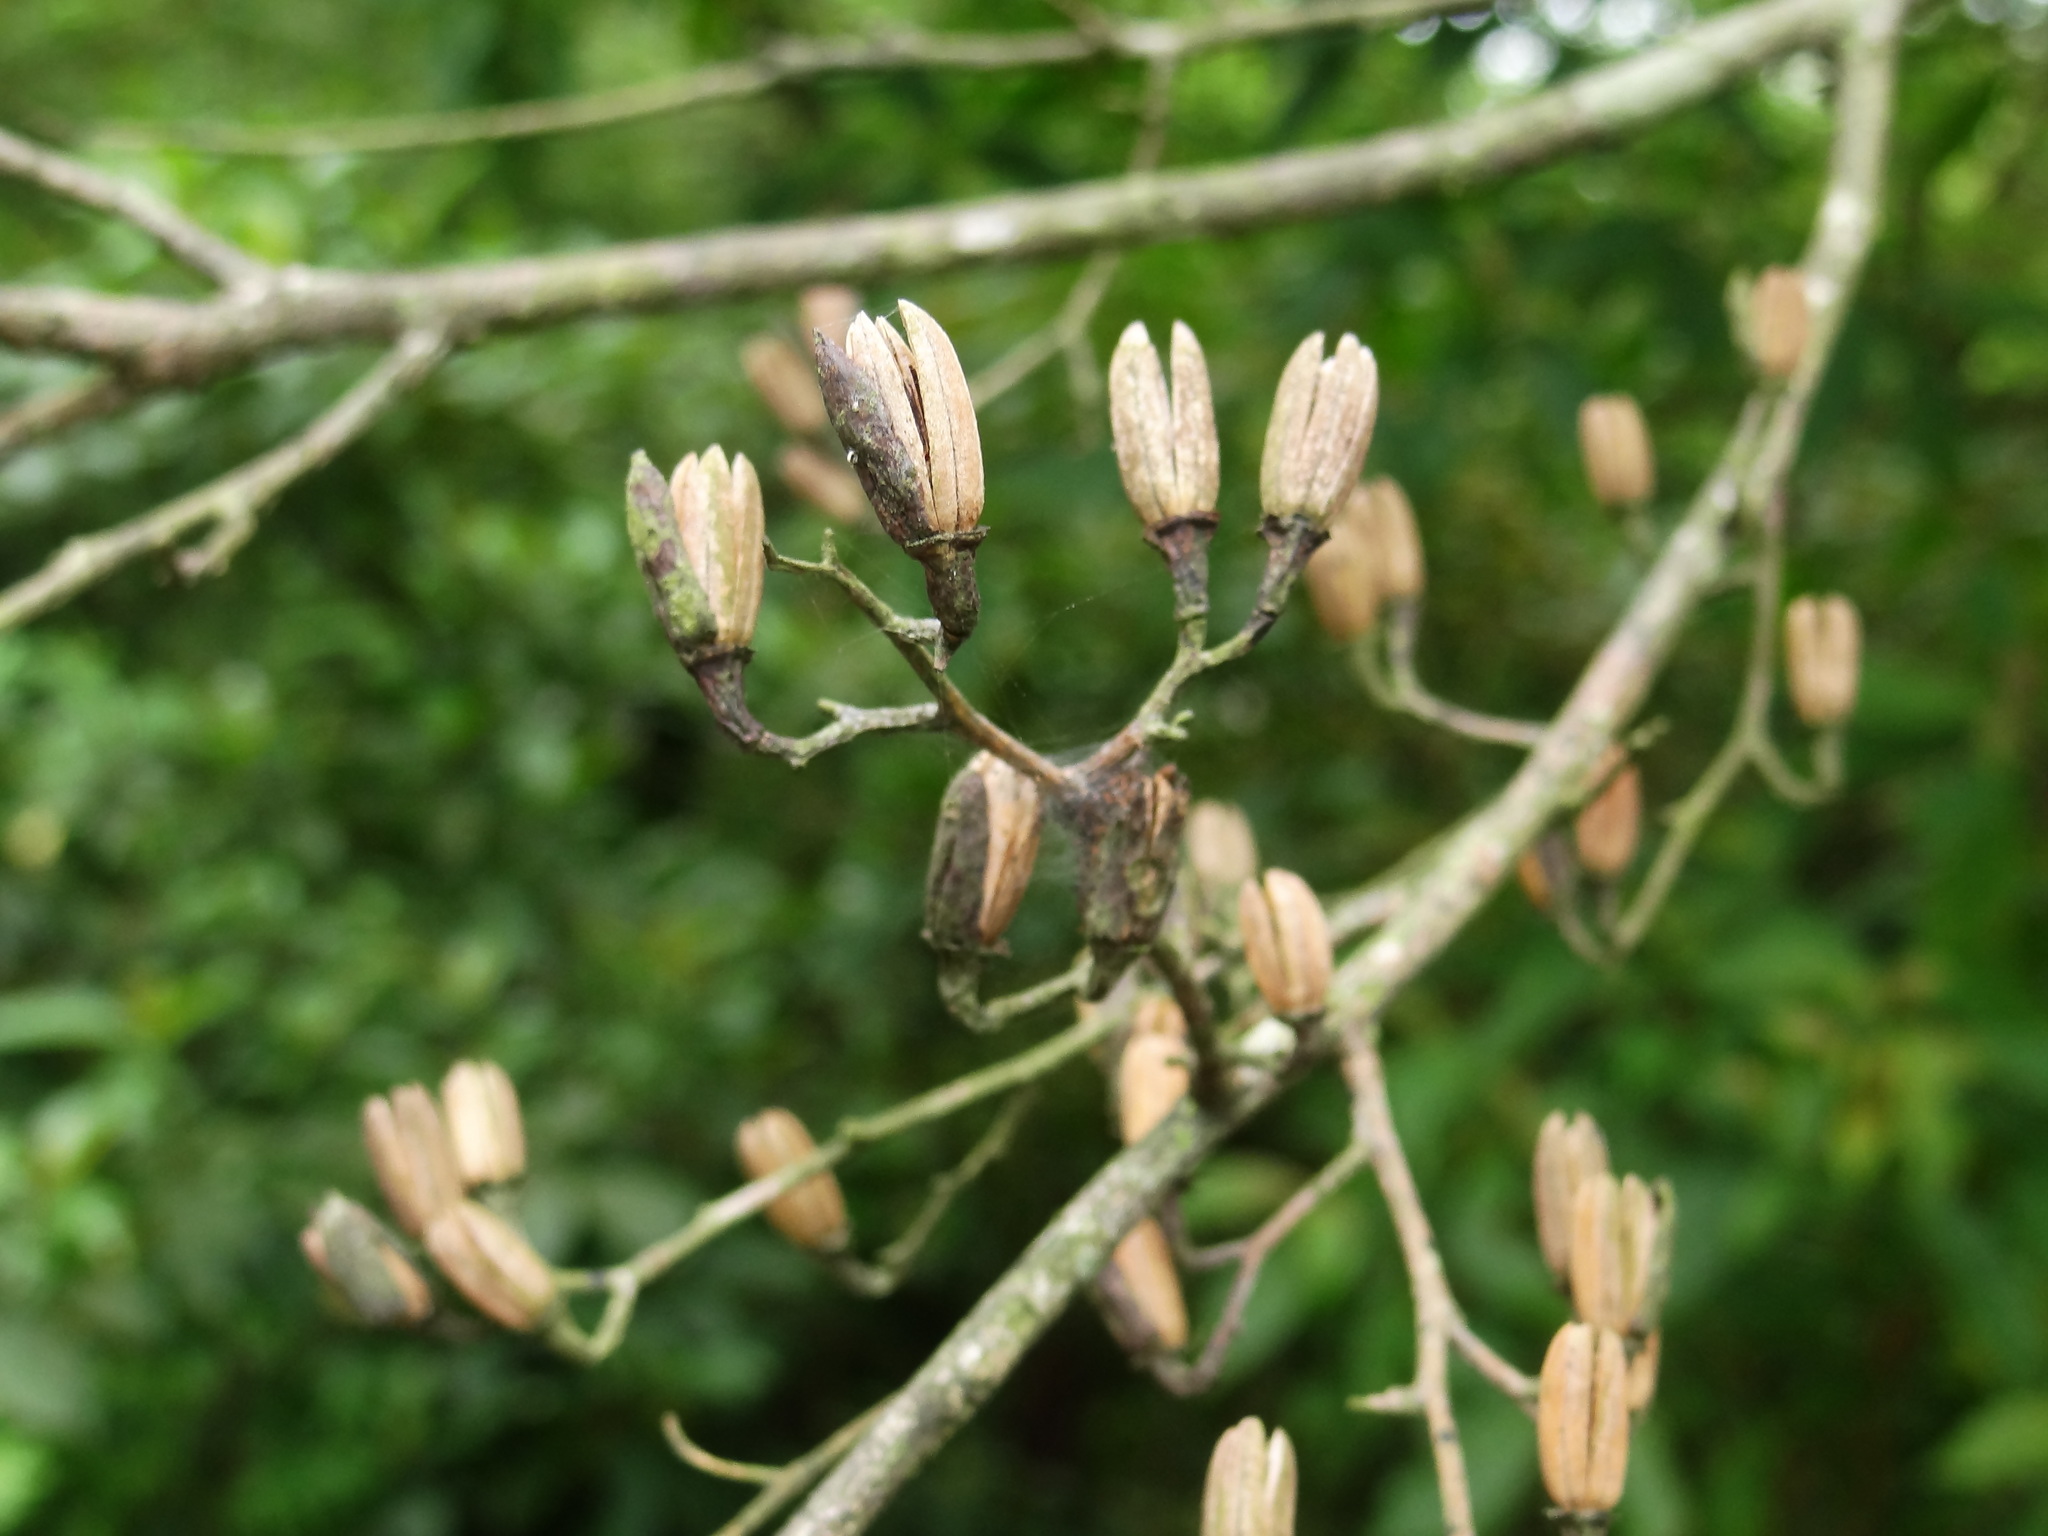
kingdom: Plantae
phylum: Tracheophyta
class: Magnoliopsida
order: Ericales
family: Styracaceae
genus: Alniphyllum
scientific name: Alniphyllum pterospermum
